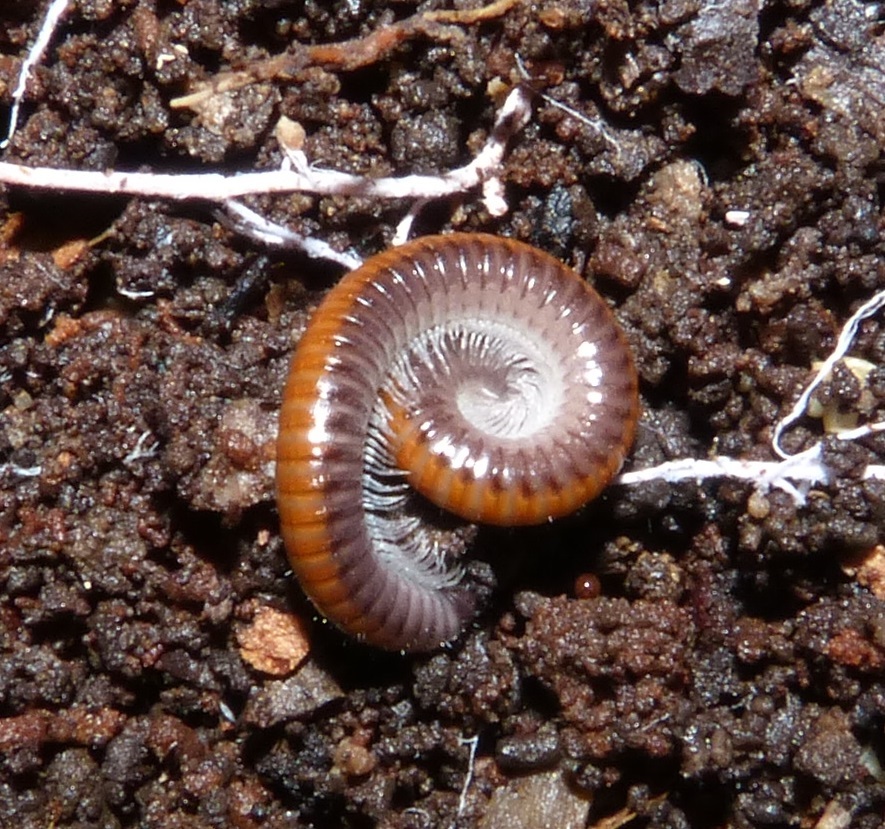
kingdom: Animalia
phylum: Arthropoda
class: Diplopoda
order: Julida
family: Julidae
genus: Ophyiulus
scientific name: Ophyiulus rubrodorsalis
